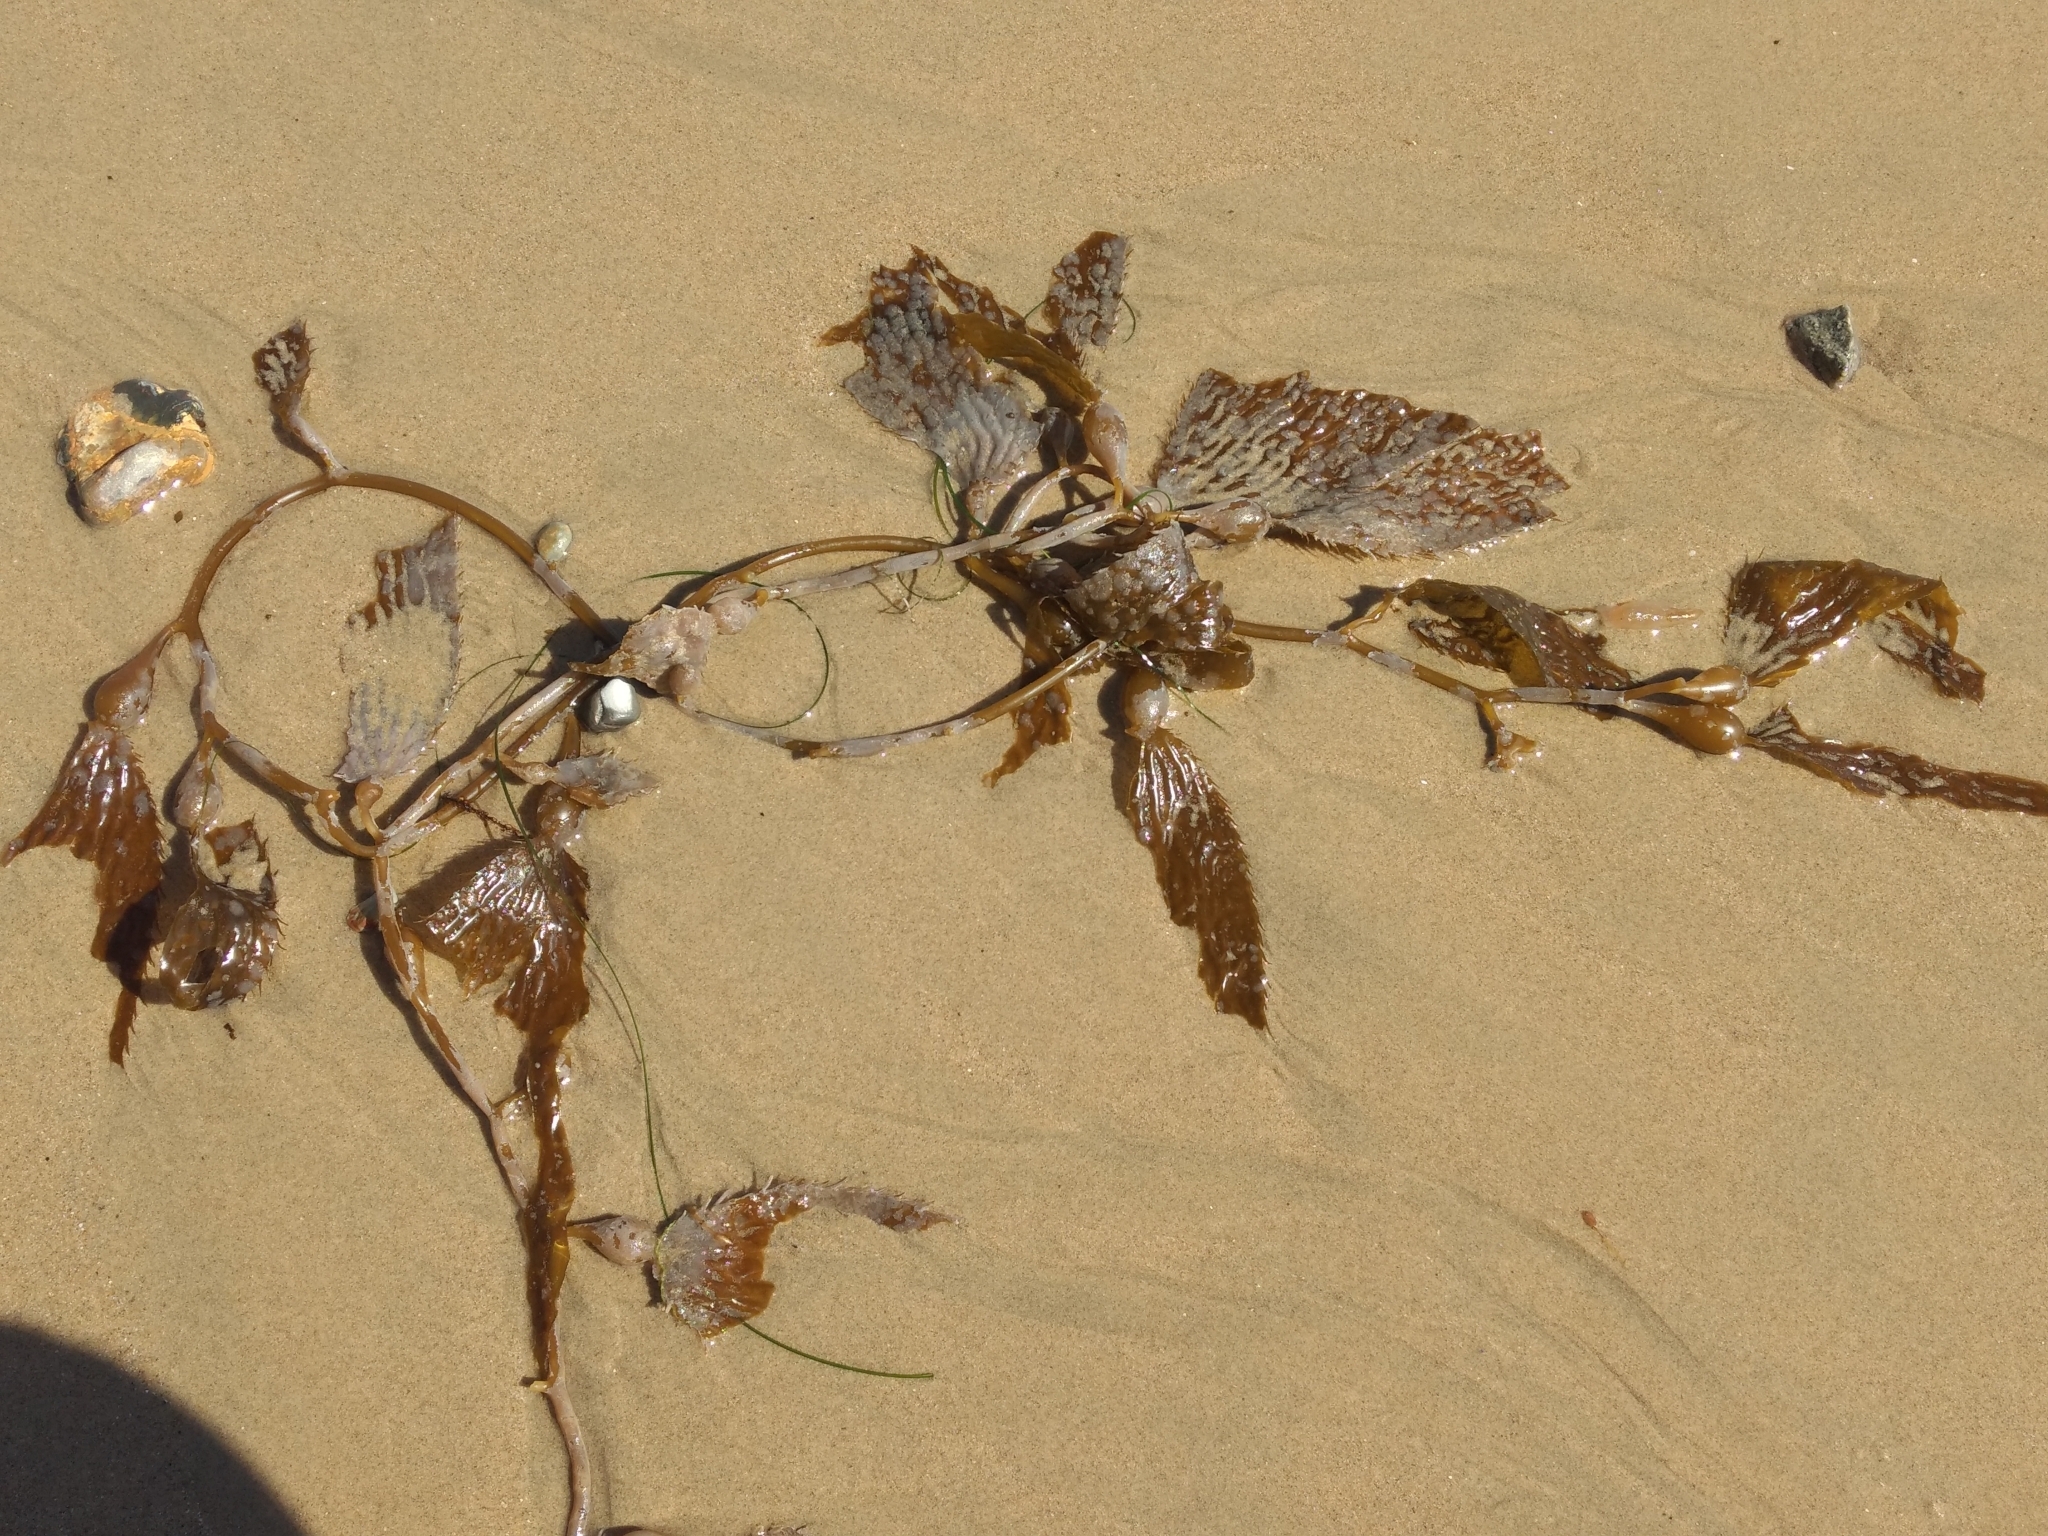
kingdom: Chromista
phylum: Ochrophyta
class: Phaeophyceae
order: Laminariales
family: Laminariaceae
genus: Macrocystis
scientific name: Macrocystis pyrifera
